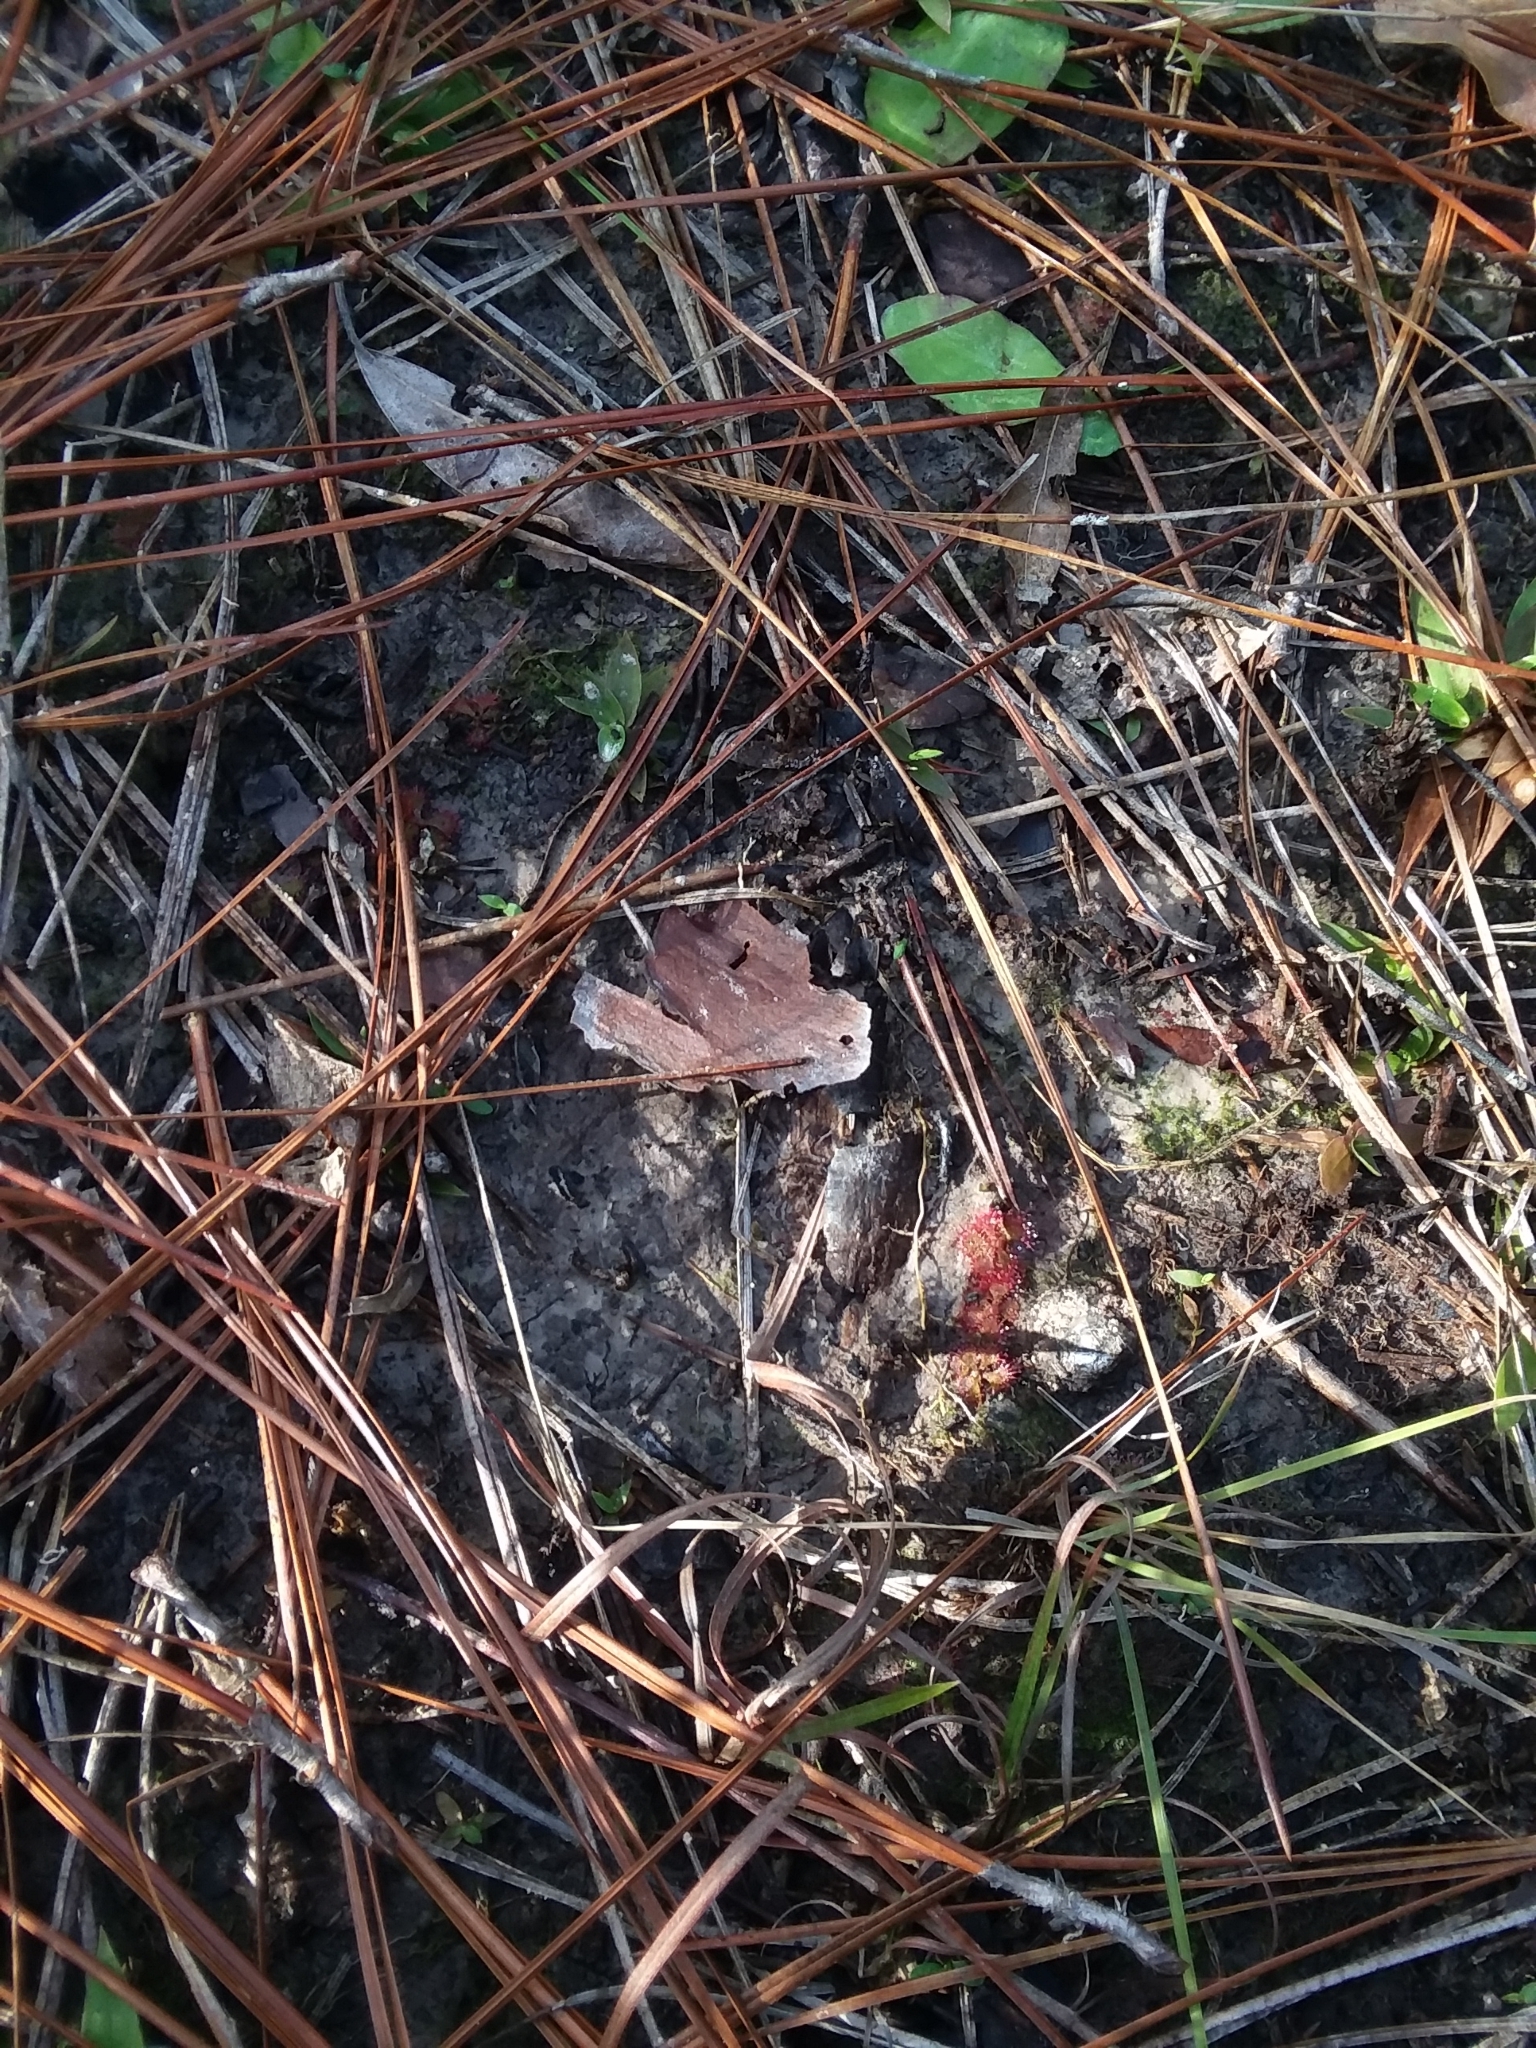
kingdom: Plantae
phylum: Tracheophyta
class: Magnoliopsida
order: Caryophyllales
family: Droseraceae
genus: Drosera
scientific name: Drosera brevifolia
